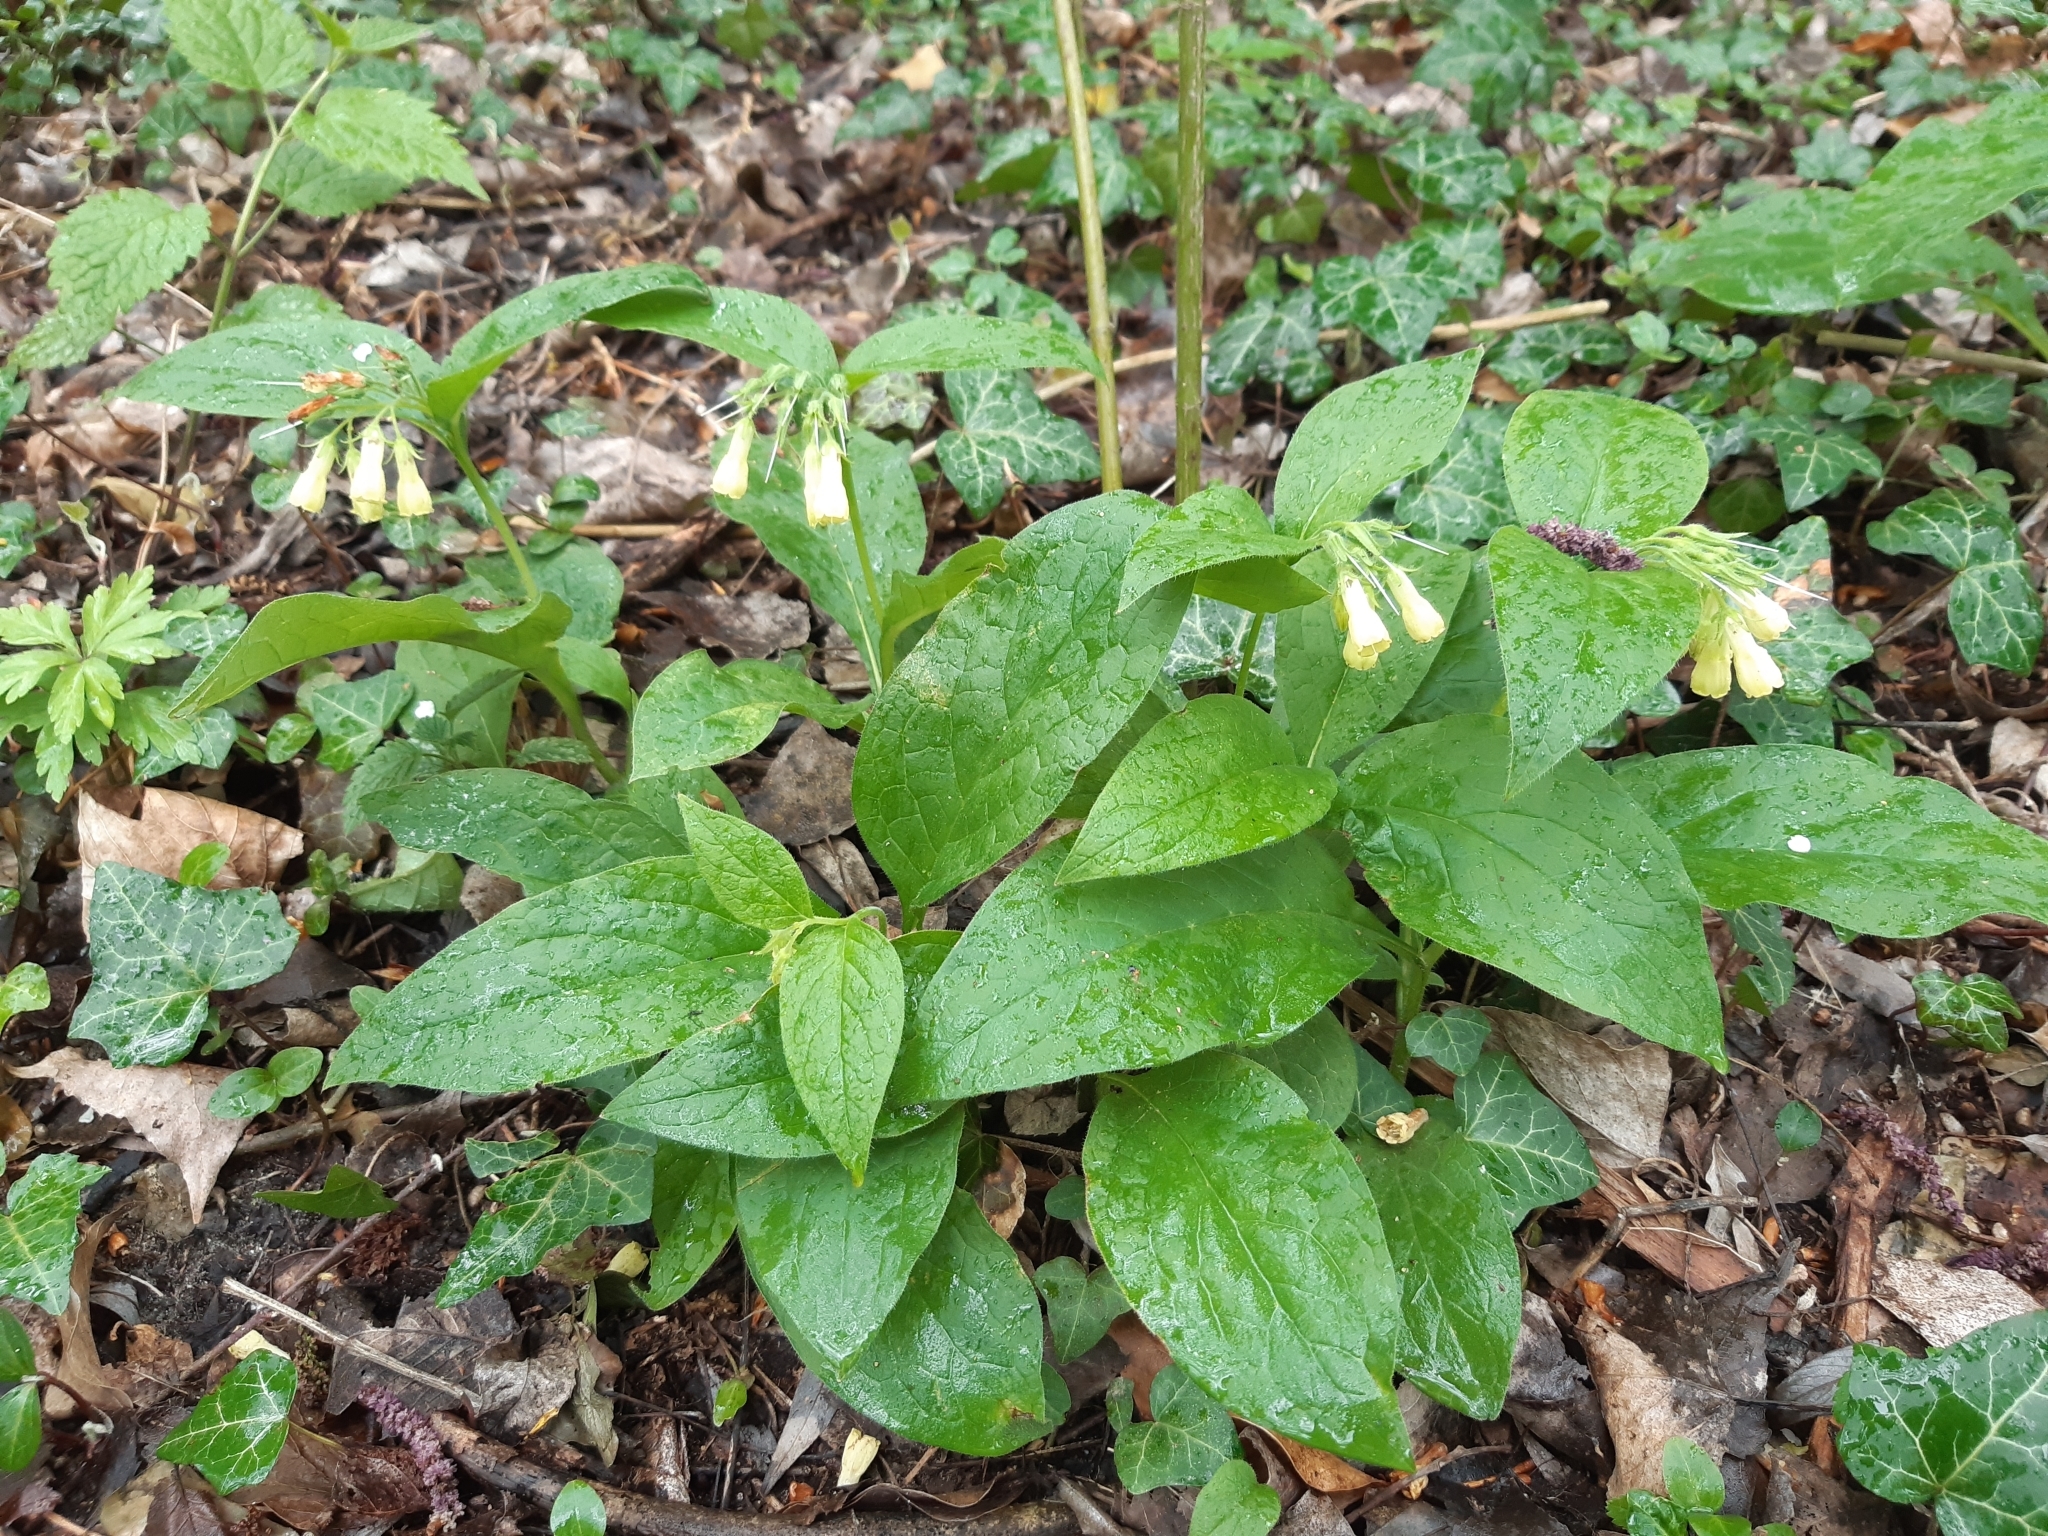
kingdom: Plantae
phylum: Tracheophyta
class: Magnoliopsida
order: Boraginales
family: Boraginaceae
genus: Symphytum
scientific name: Symphytum tuberosum
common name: Tuberous comfrey
